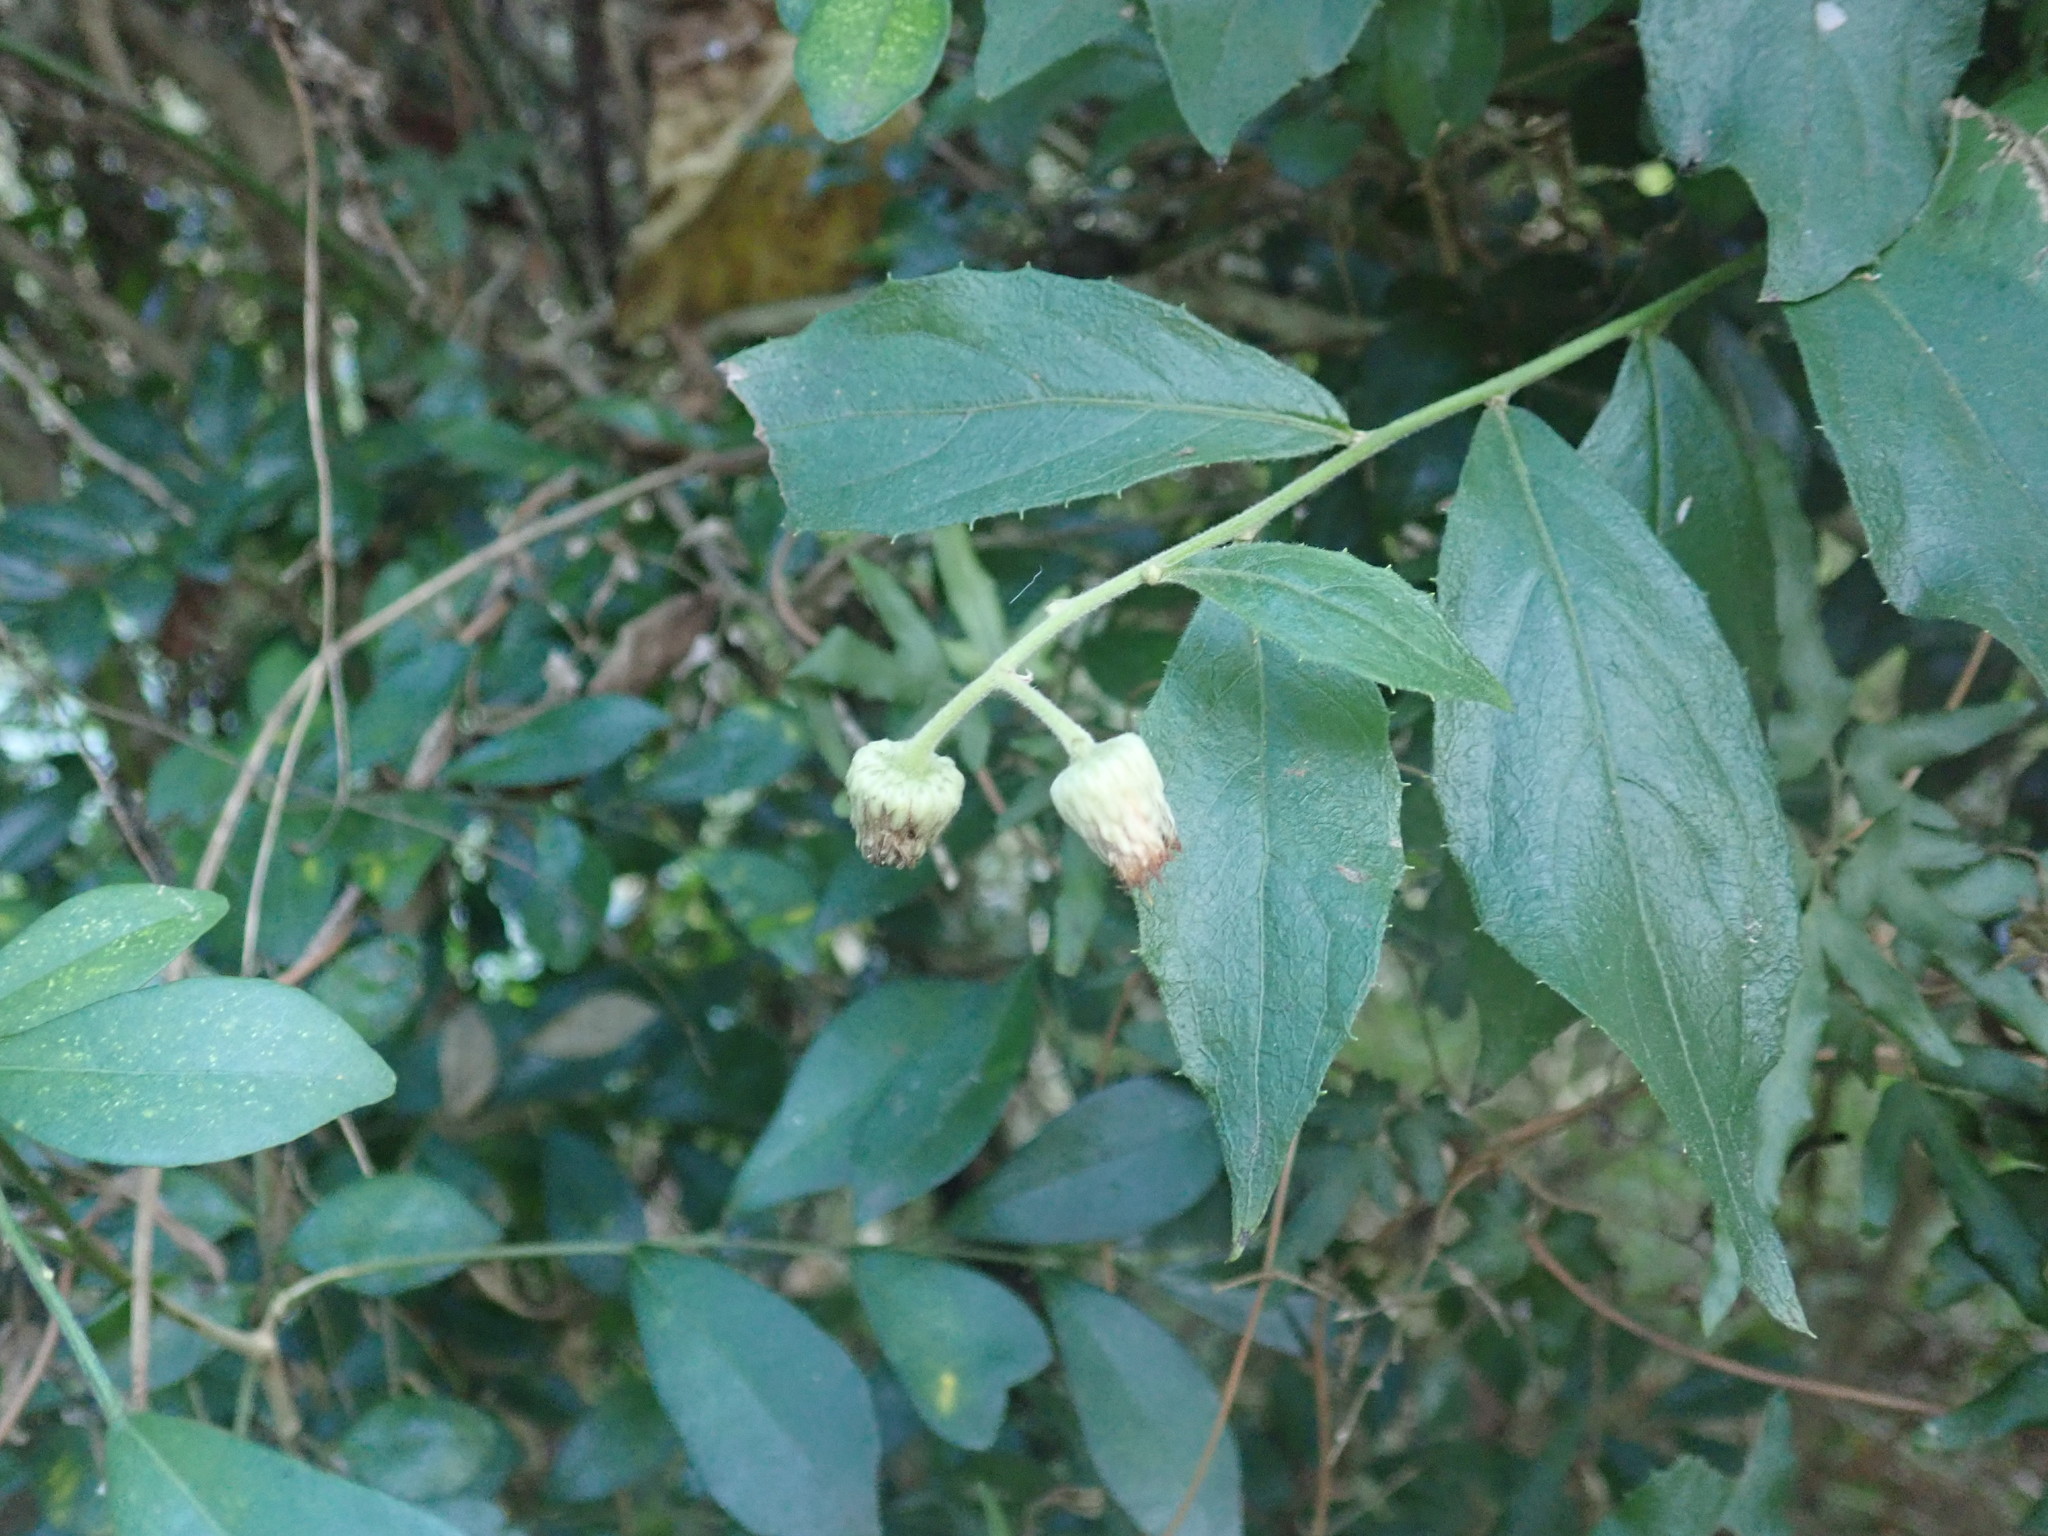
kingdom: Plantae
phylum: Tracheophyta
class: Magnoliopsida
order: Asterales
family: Asteraceae
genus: Blumea
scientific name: Blumea megacephala
